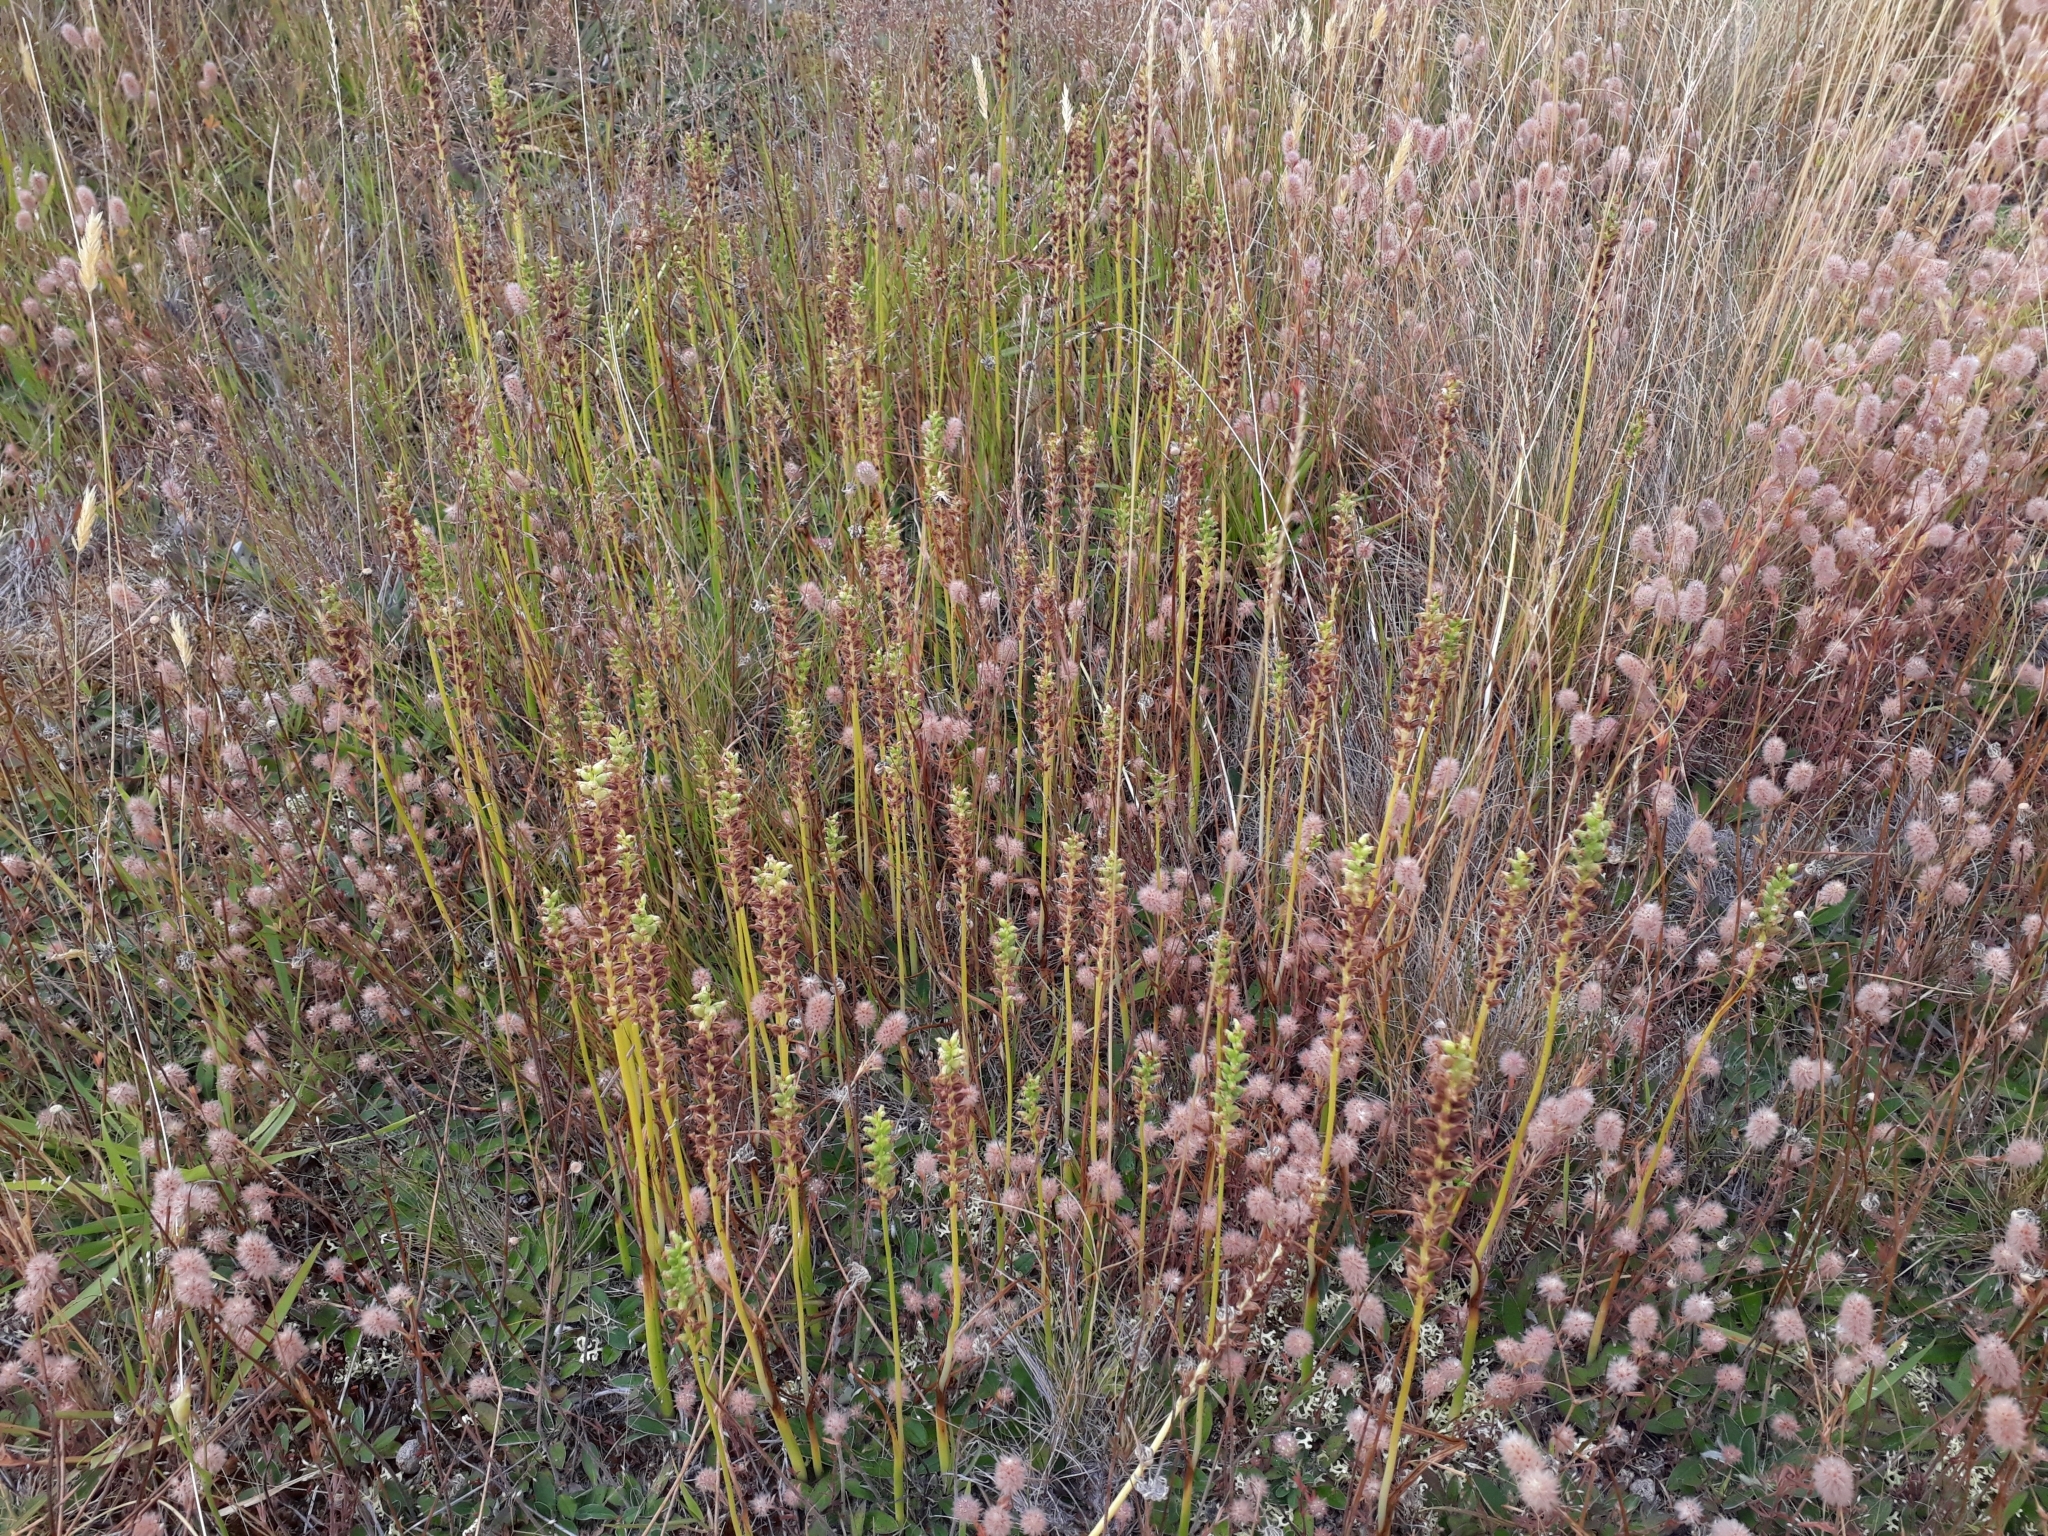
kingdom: Plantae
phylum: Tracheophyta
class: Liliopsida
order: Asparagales
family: Orchidaceae
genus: Microtis
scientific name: Microtis unifolia
